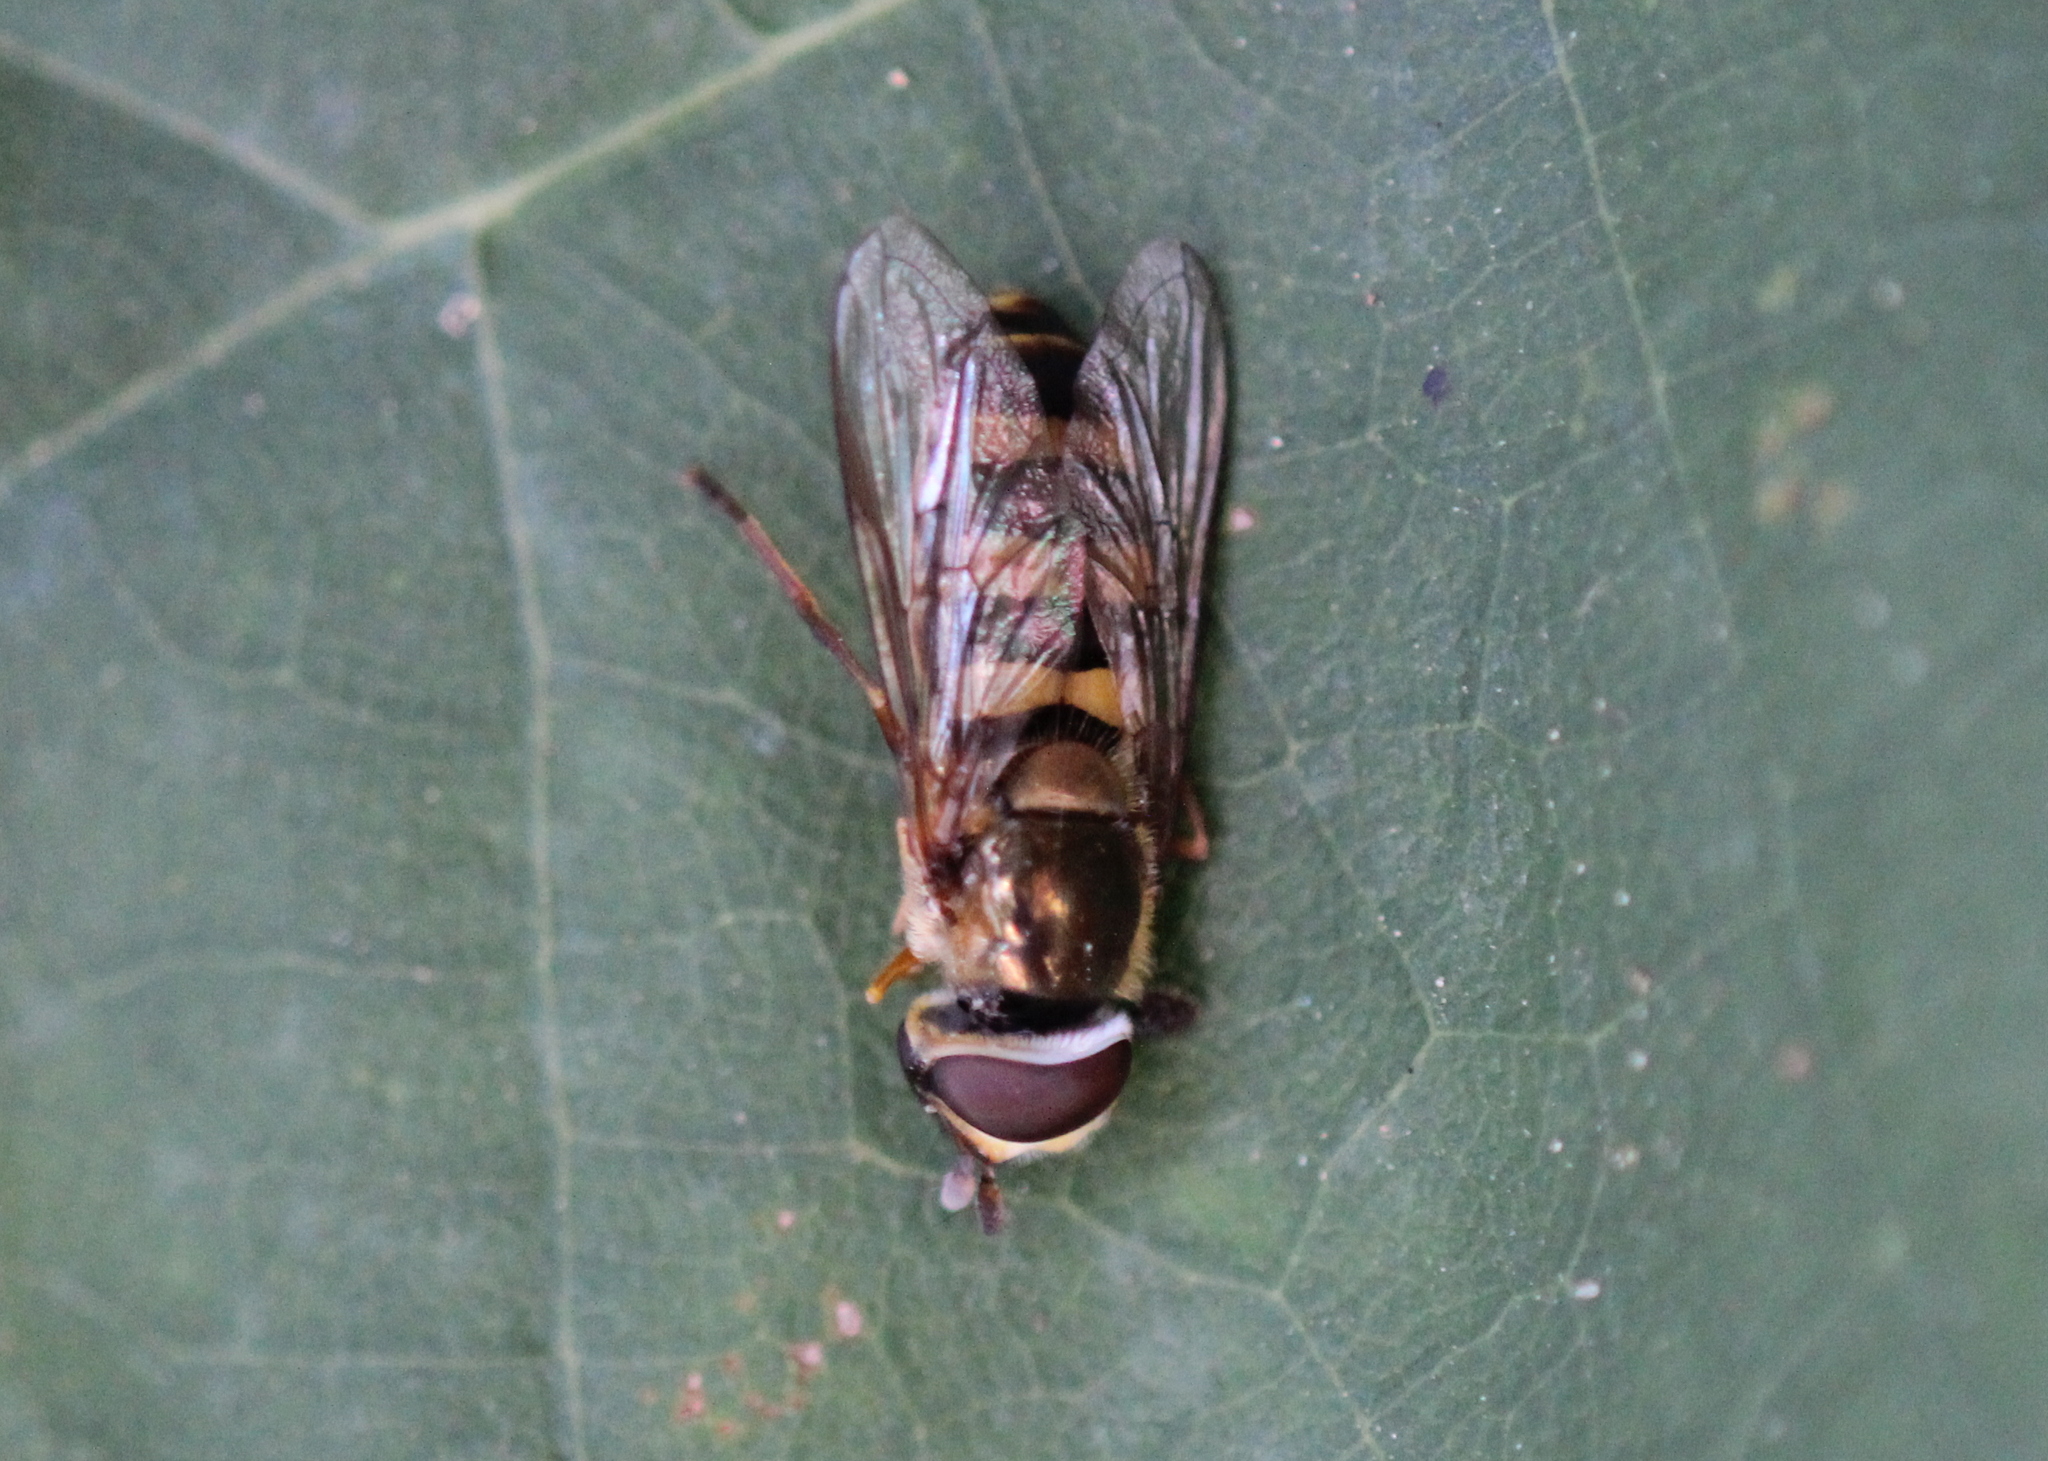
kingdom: Animalia
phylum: Arthropoda
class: Insecta
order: Diptera
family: Syrphidae
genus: Eupeodes
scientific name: Eupeodes
